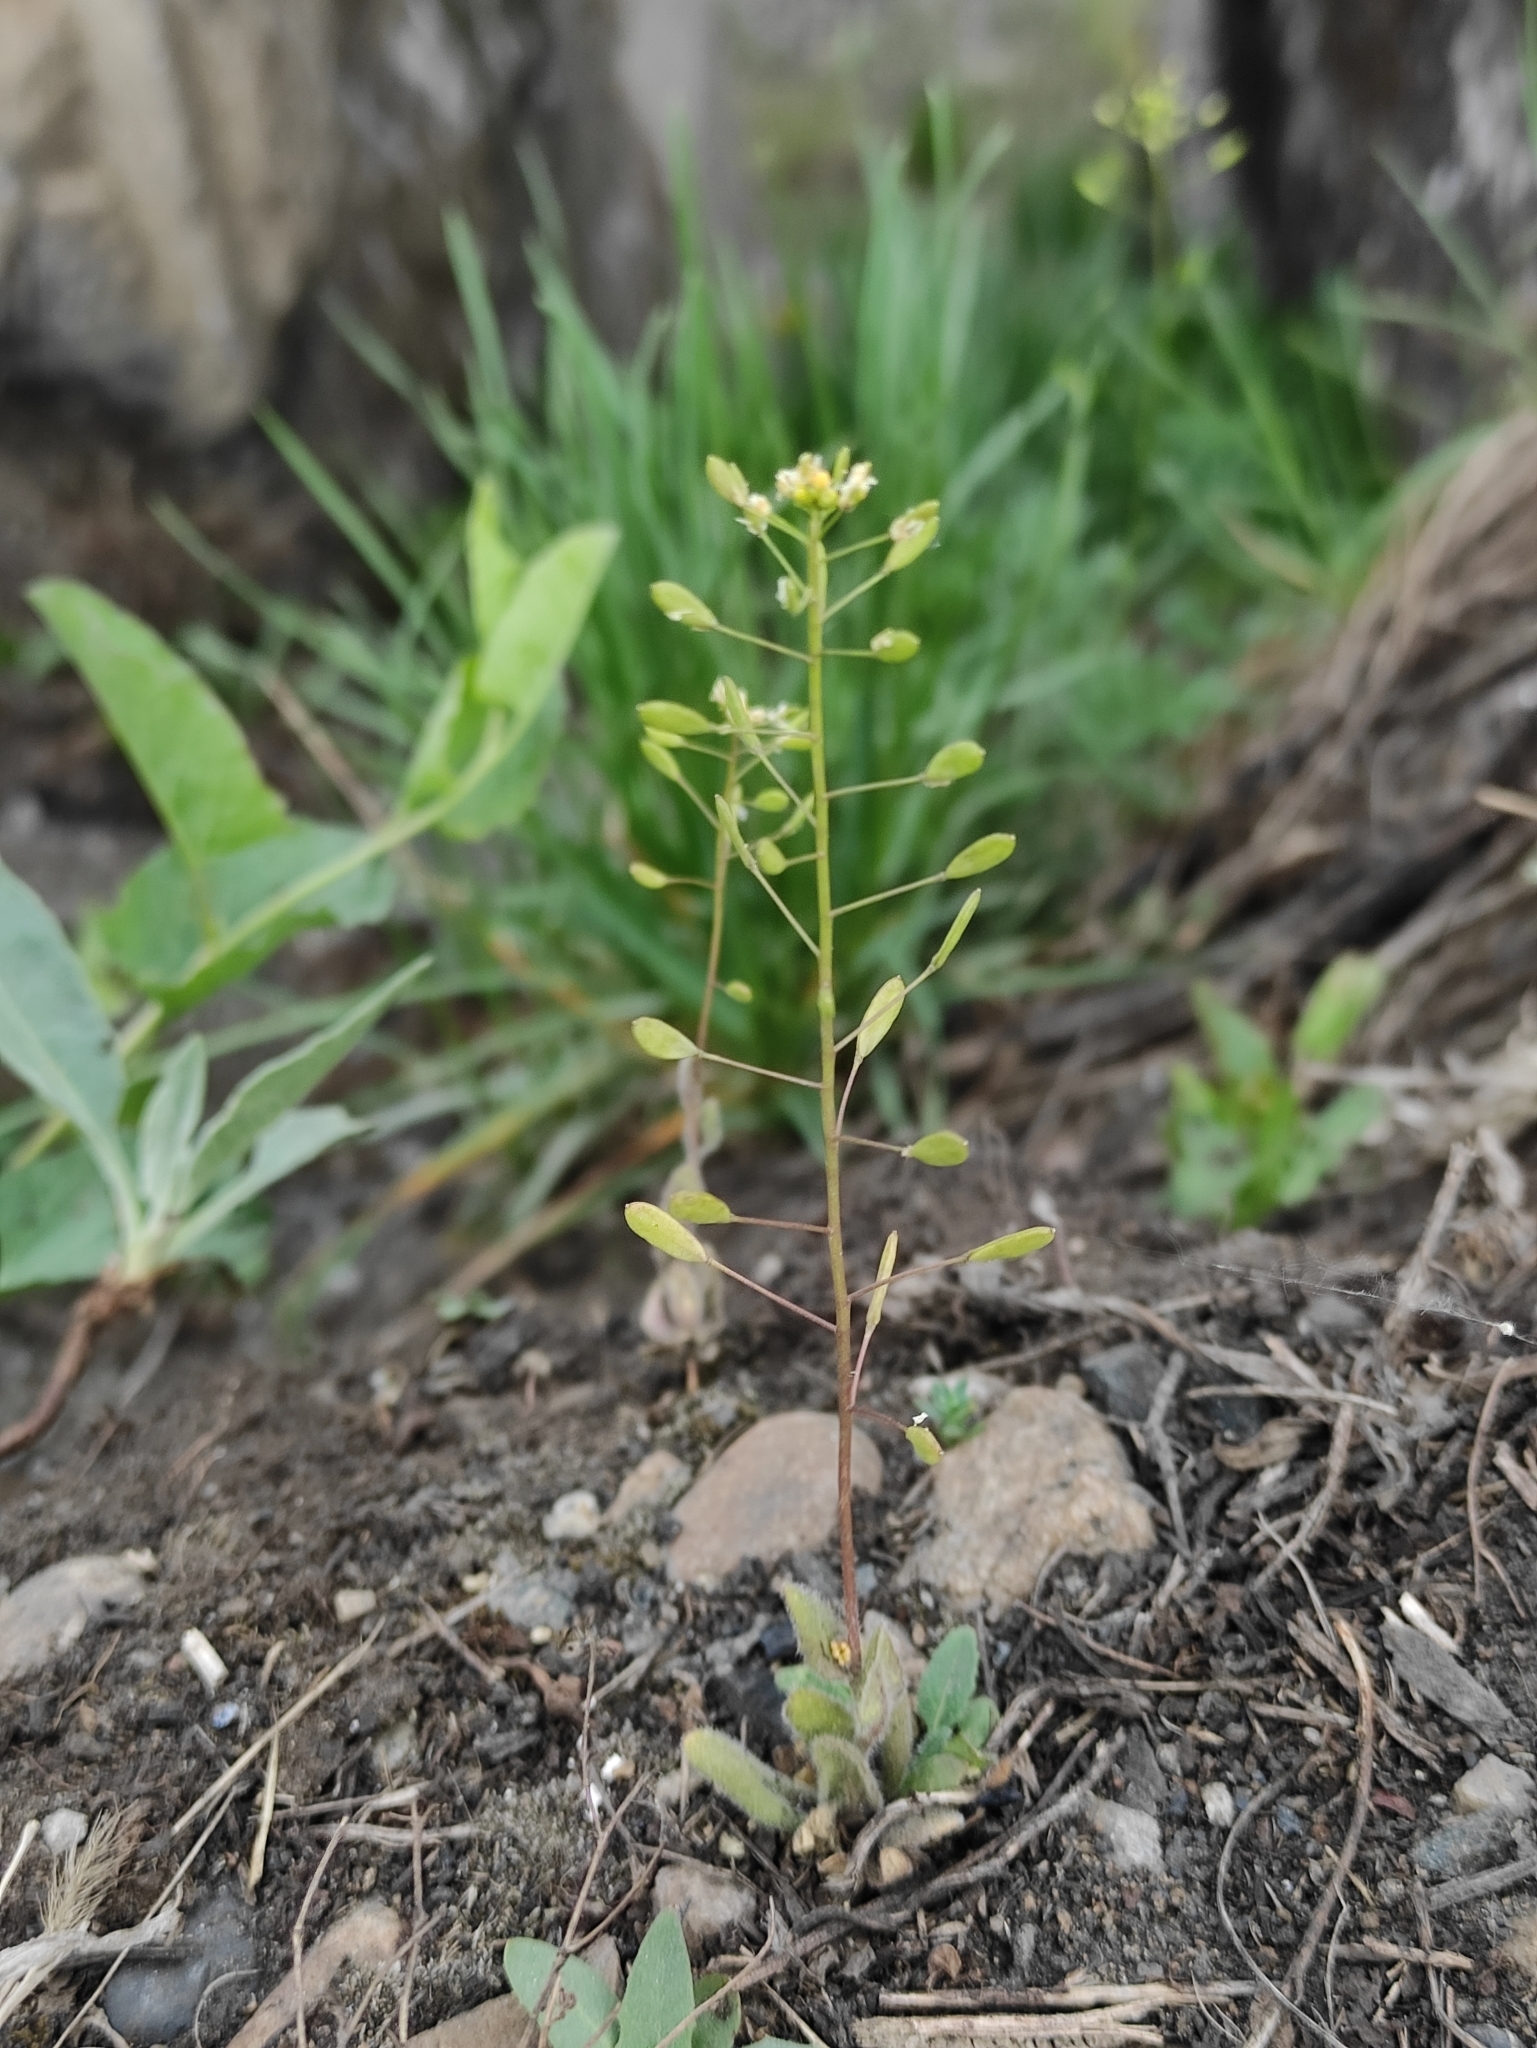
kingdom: Plantae
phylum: Tracheophyta
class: Magnoliopsida
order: Brassicales
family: Brassicaceae
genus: Draba
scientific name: Draba nemorosa
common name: Wood whitlow-grass
